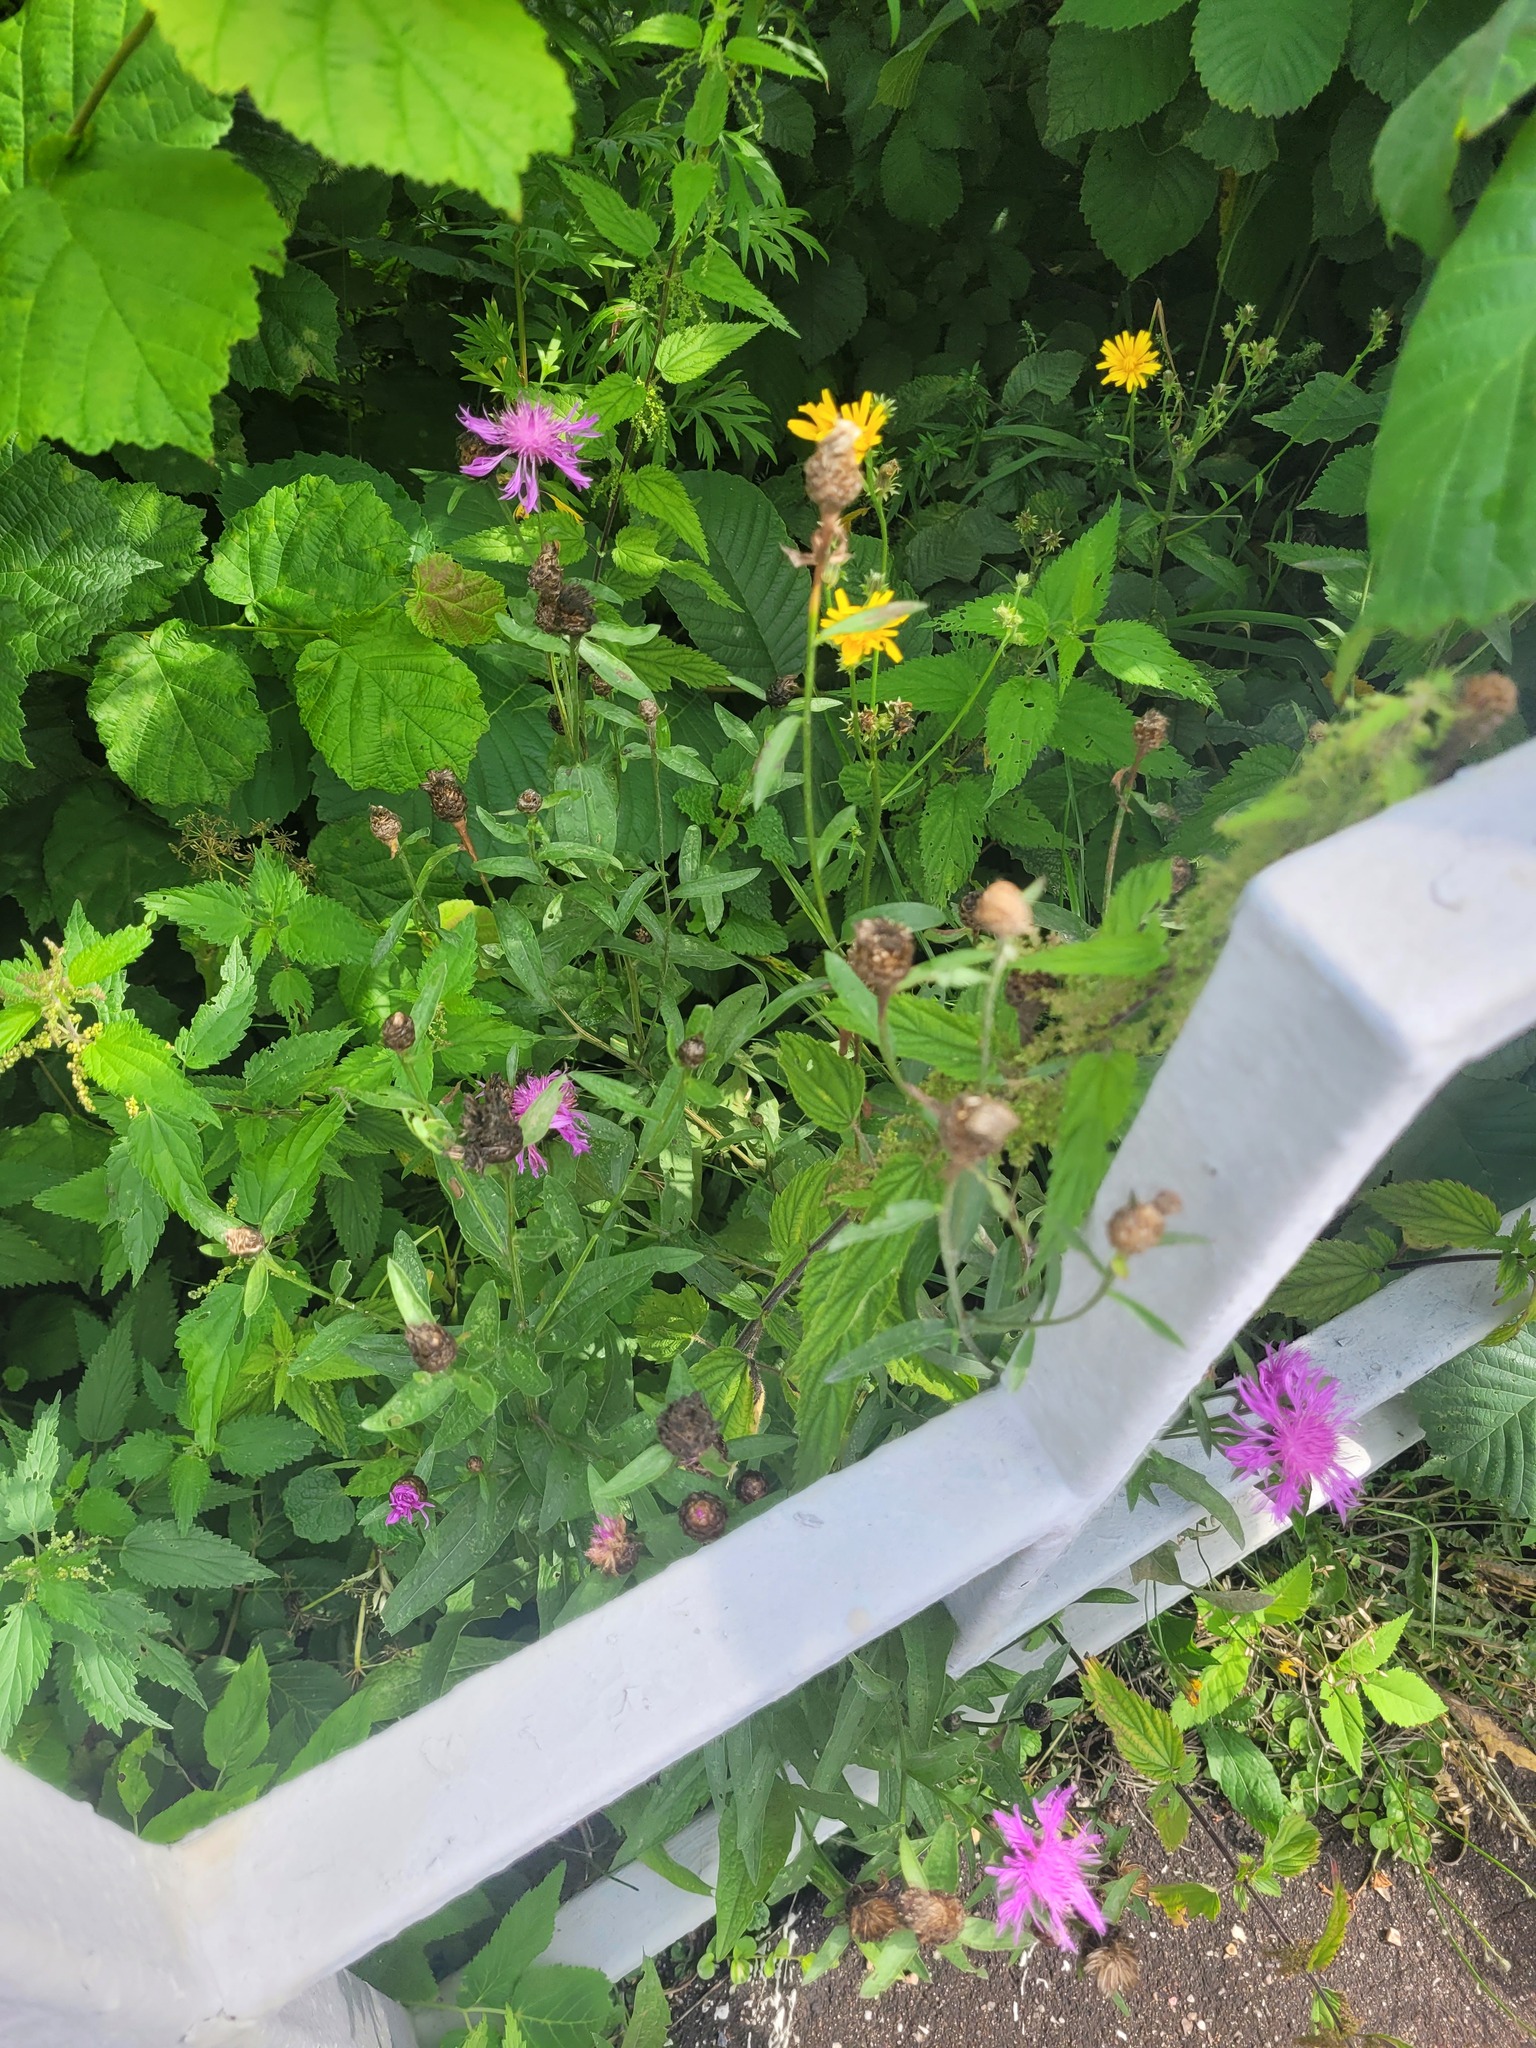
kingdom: Plantae
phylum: Tracheophyta
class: Magnoliopsida
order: Asterales
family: Asteraceae
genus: Centaurea
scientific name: Centaurea jacea
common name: Brown knapweed
